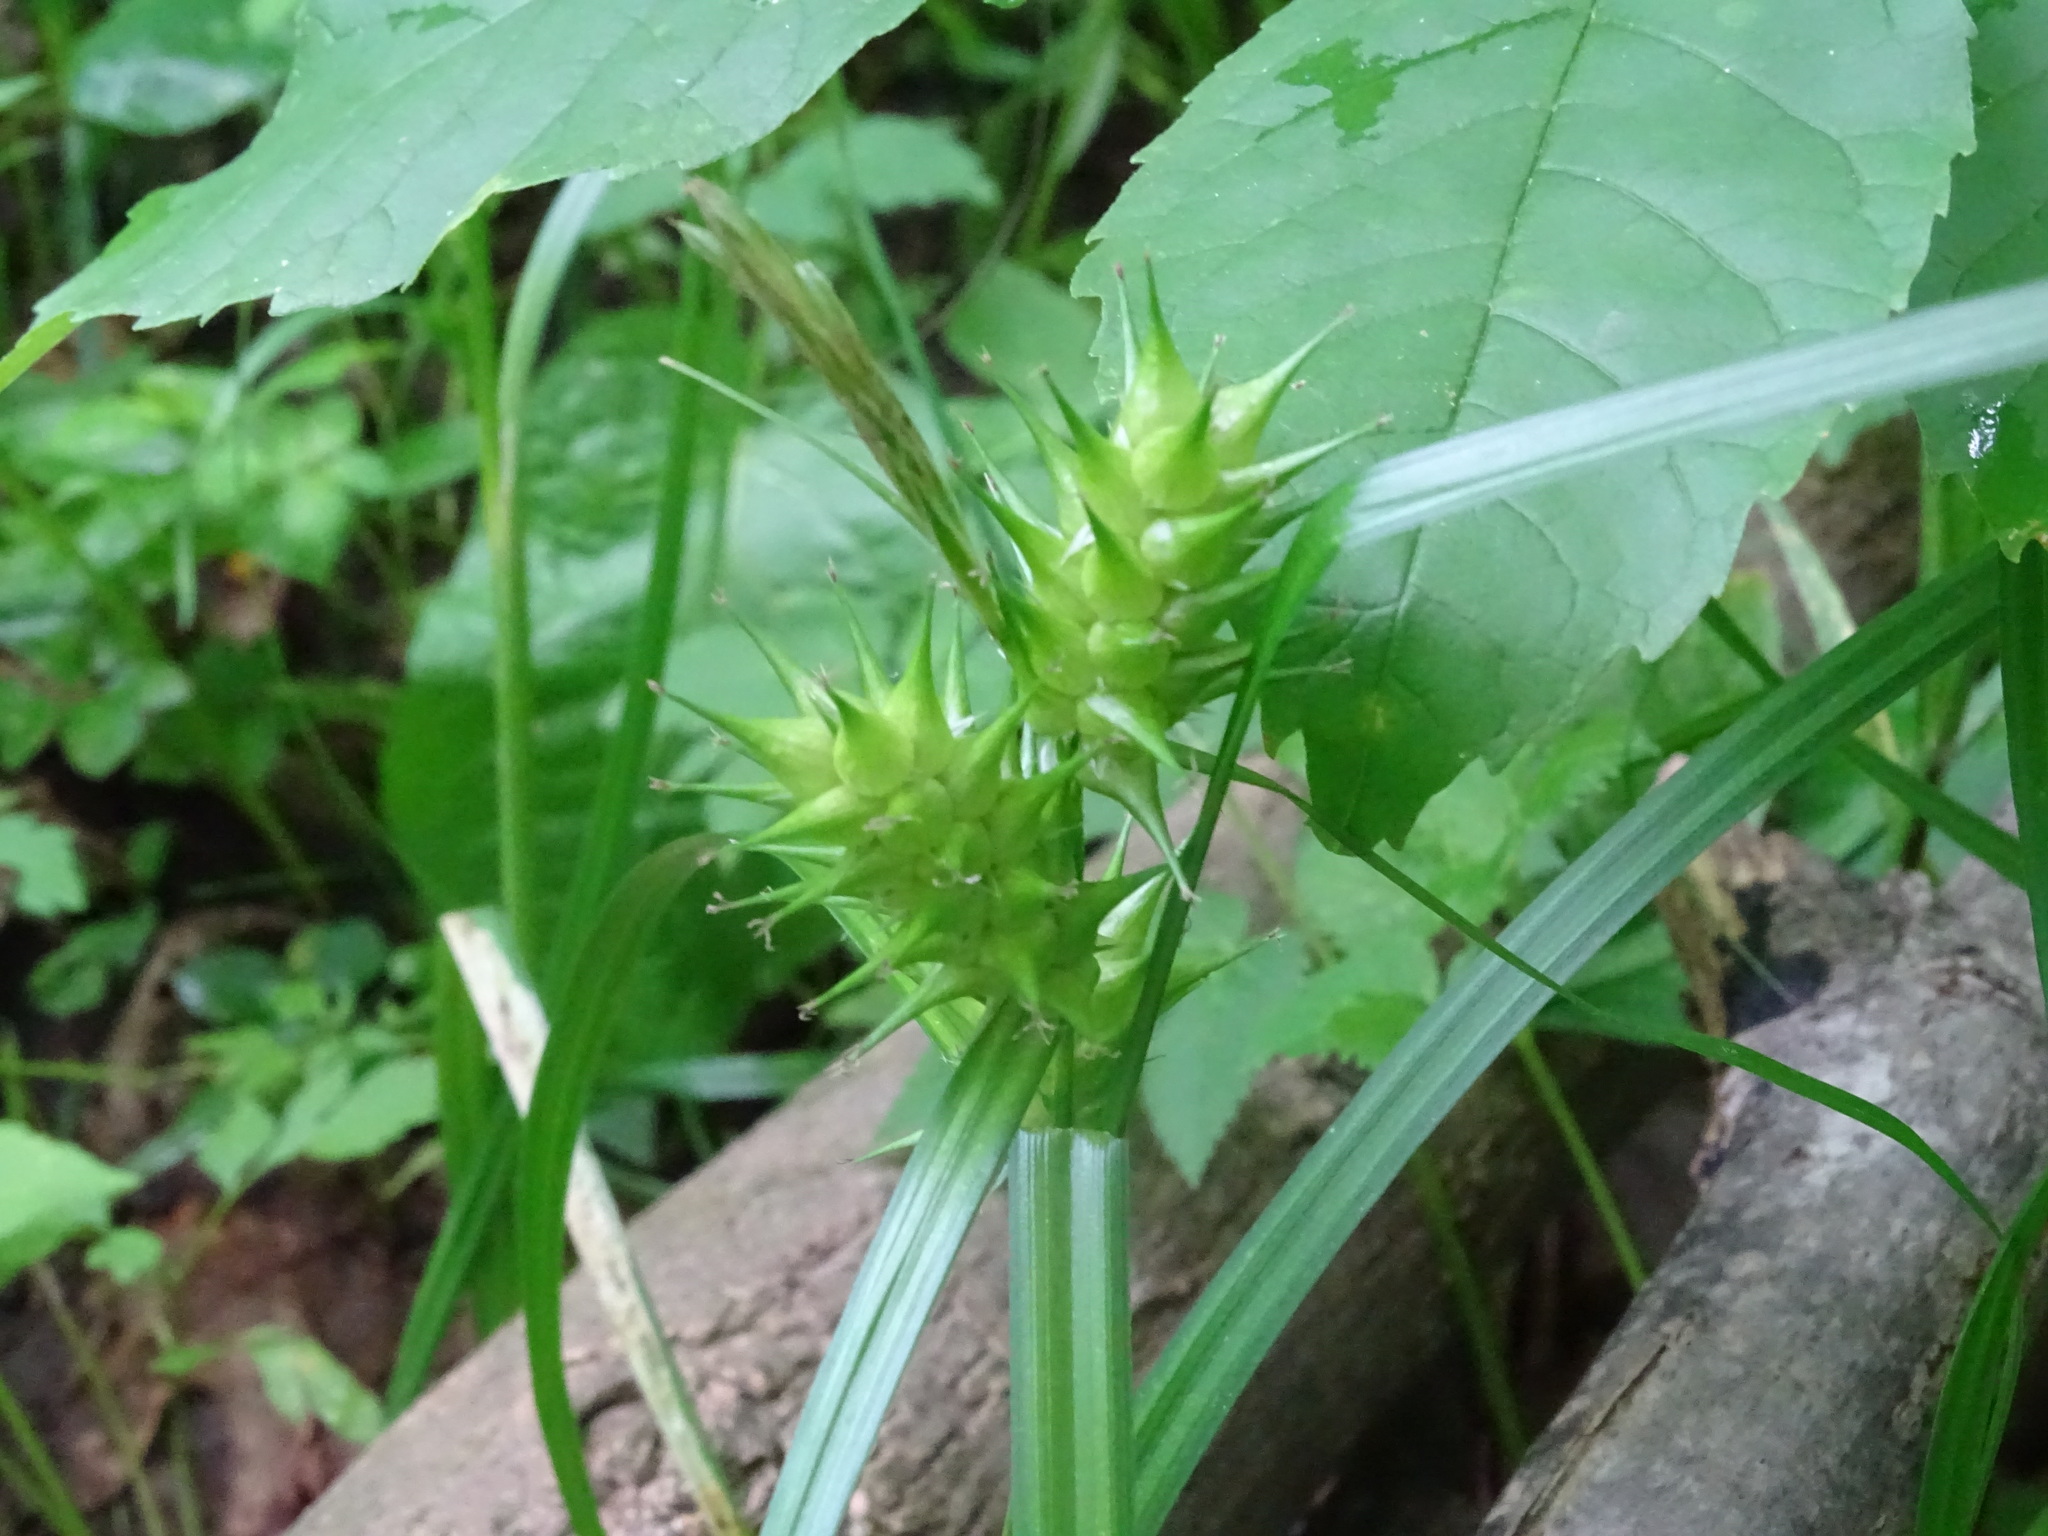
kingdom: Plantae
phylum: Tracheophyta
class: Liliopsida
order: Poales
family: Cyperaceae
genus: Carex
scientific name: Carex lupulina
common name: Hop sedge
